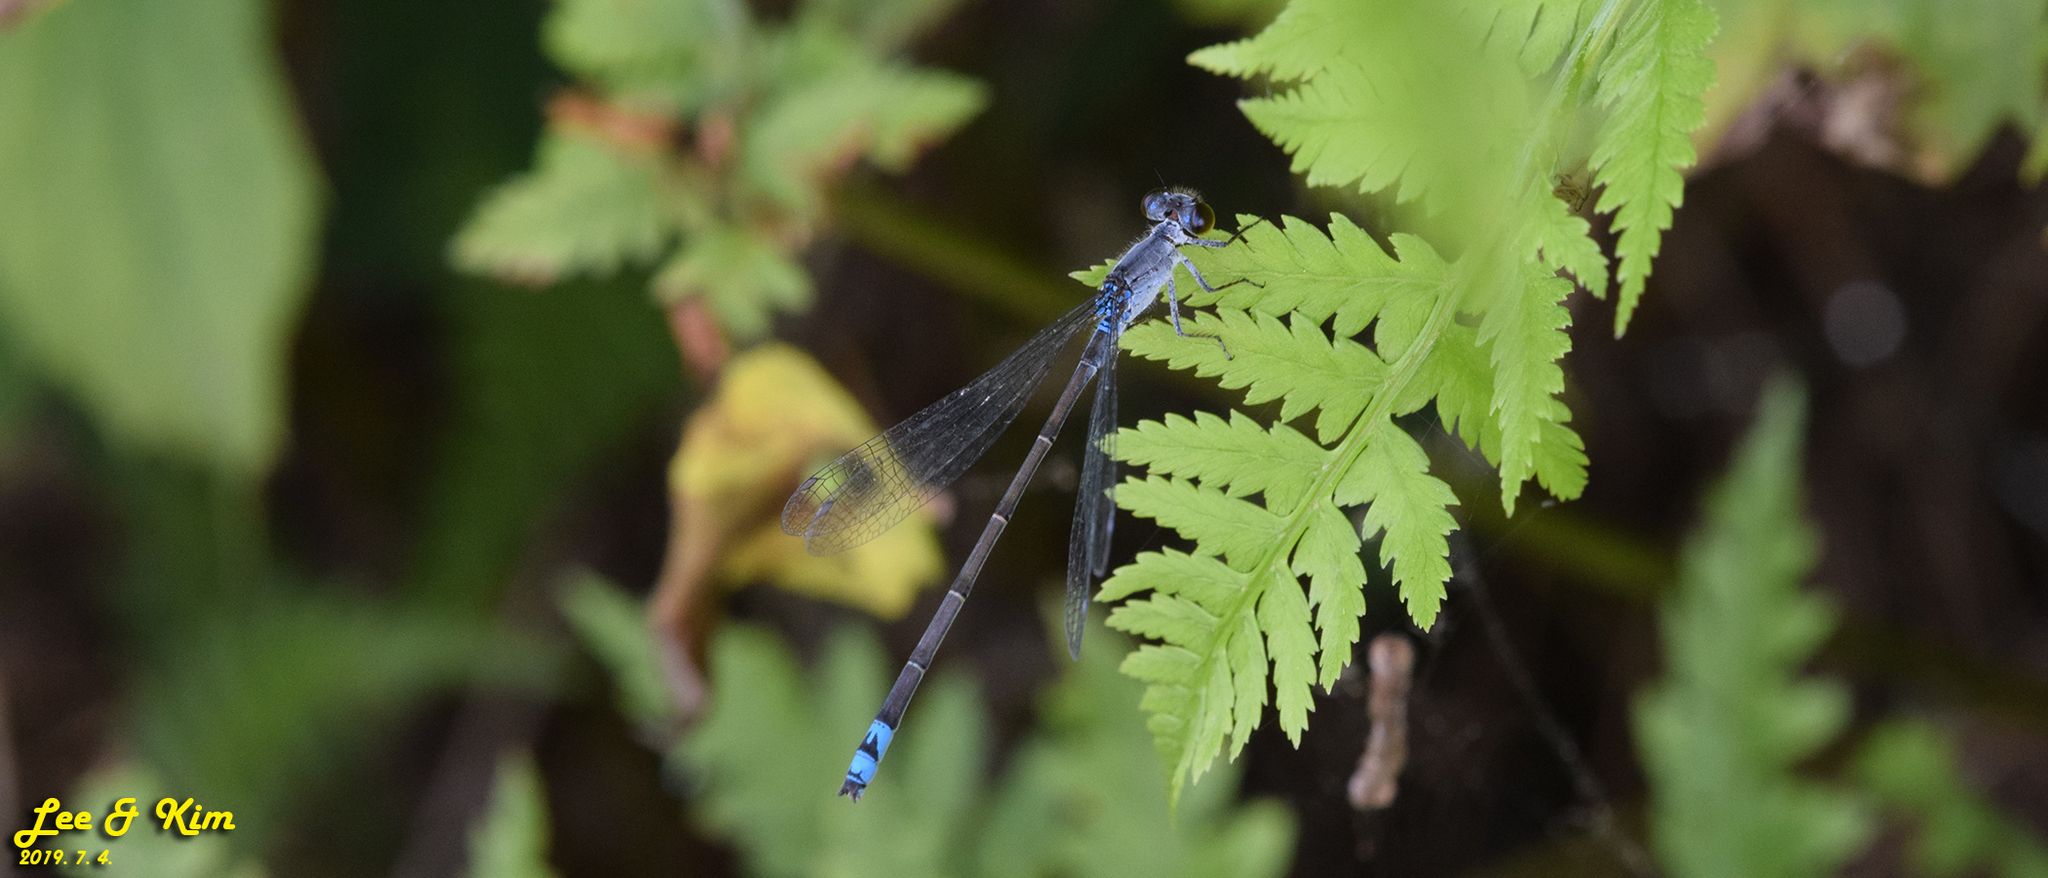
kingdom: Animalia
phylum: Arthropoda
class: Insecta
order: Odonata
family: Coenagrionidae
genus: Paracercion
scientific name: Paracercion calamorum
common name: Dusky lilysquatter
